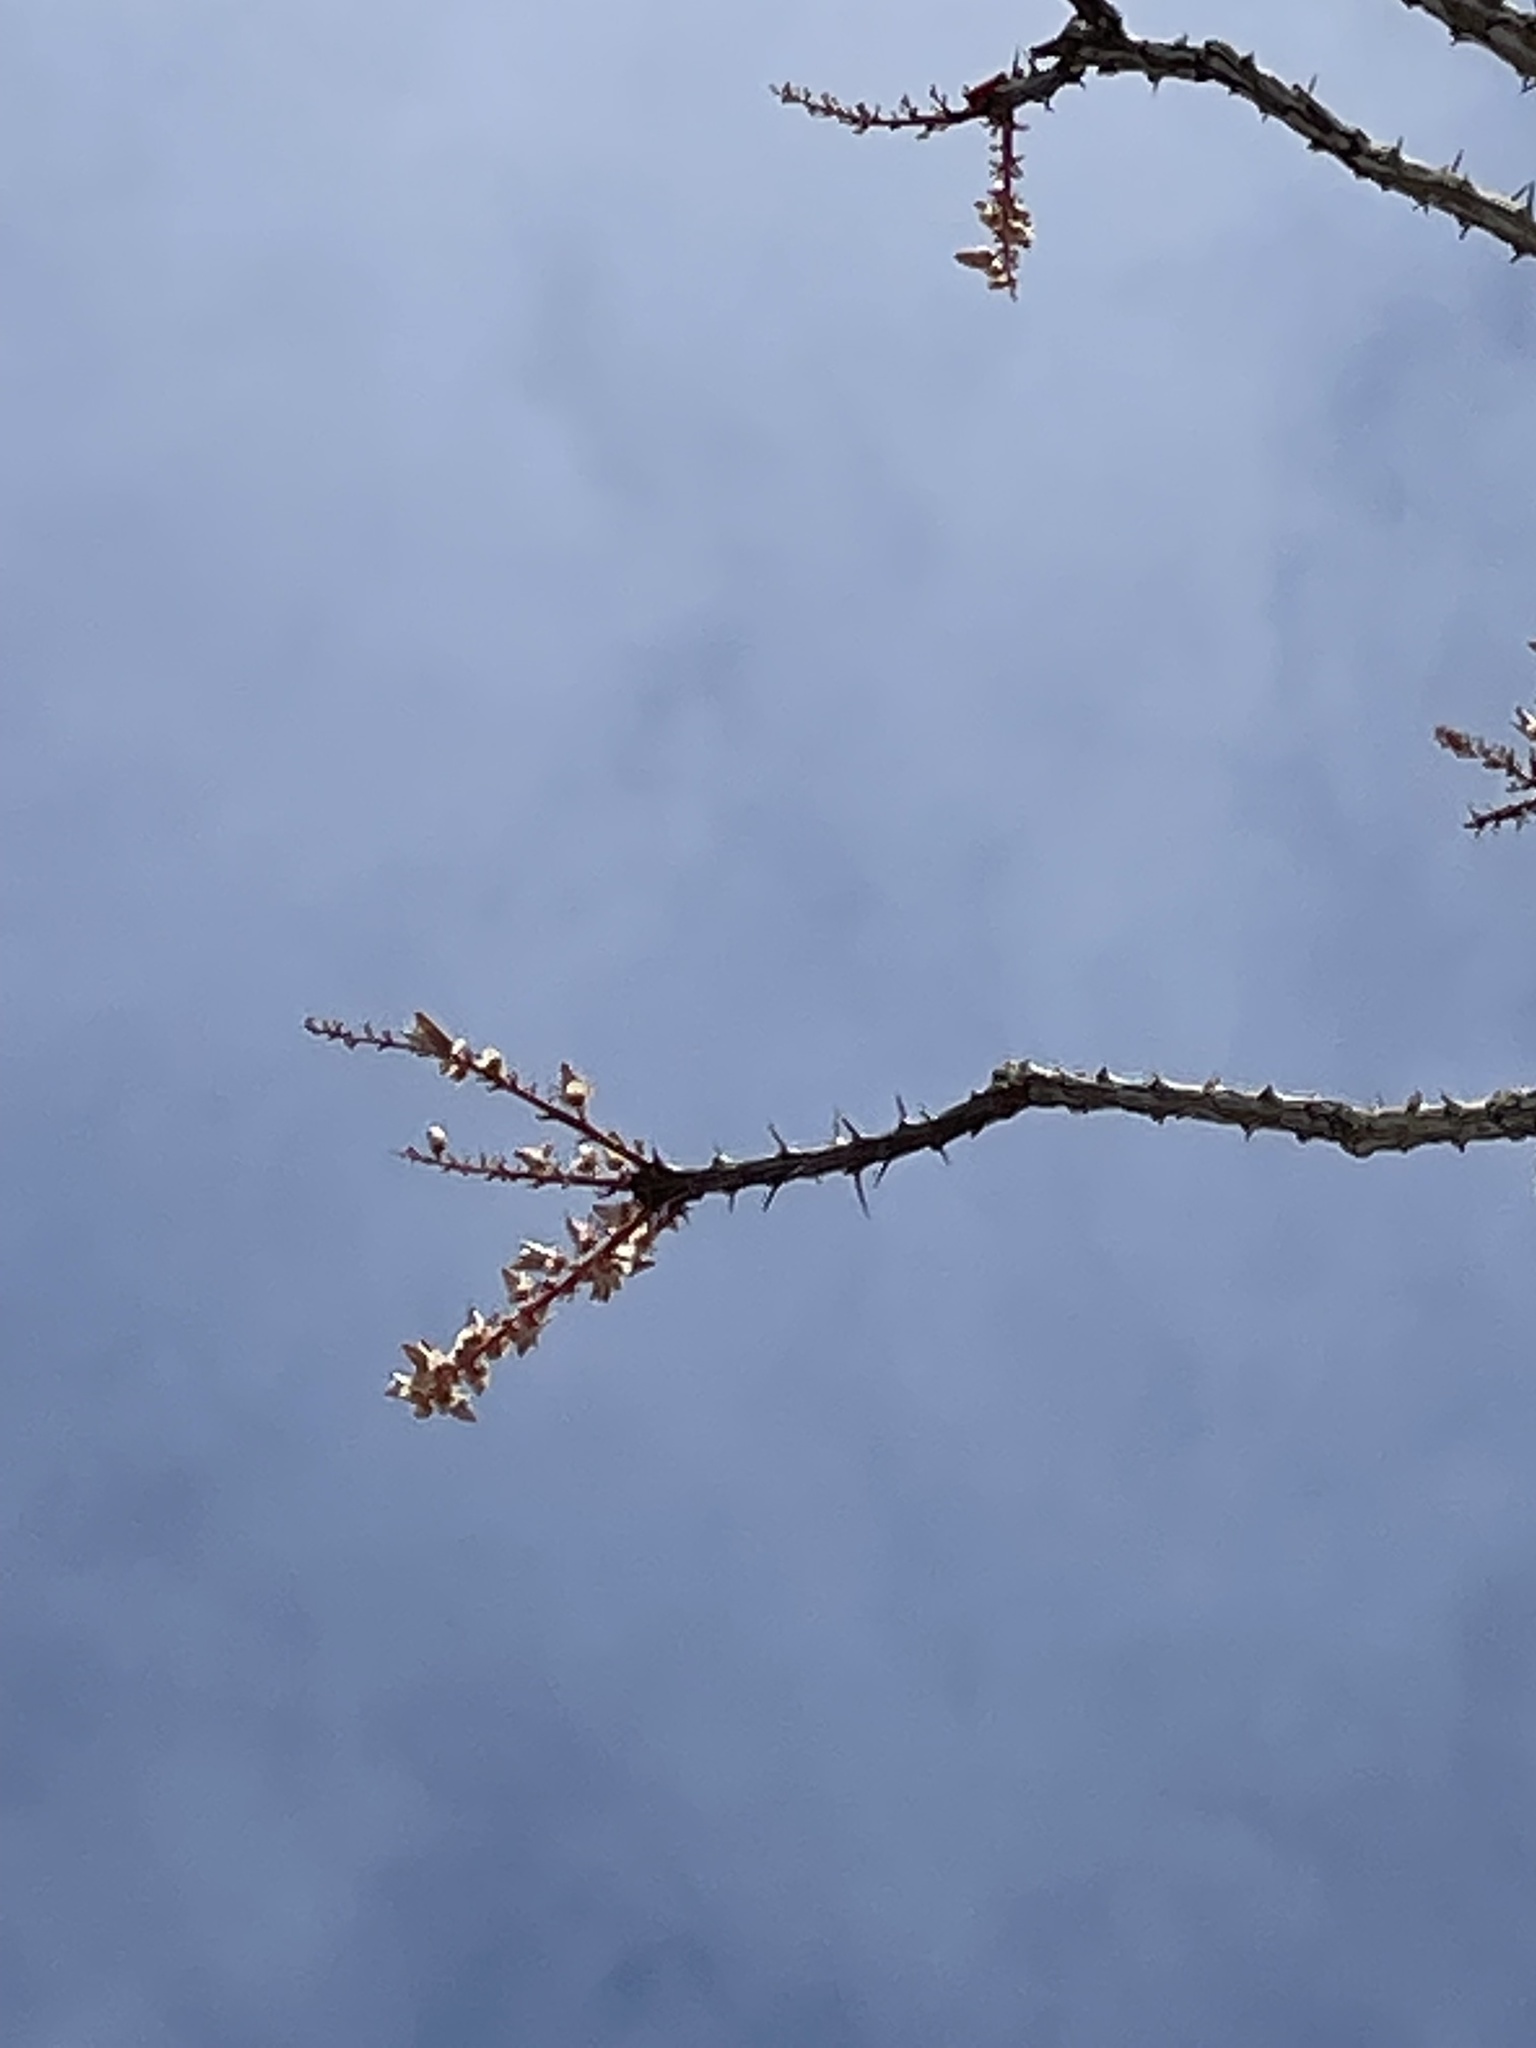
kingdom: Plantae
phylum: Tracheophyta
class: Magnoliopsida
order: Ericales
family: Fouquieriaceae
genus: Fouquieria
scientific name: Fouquieria splendens
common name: Vine-cactus
